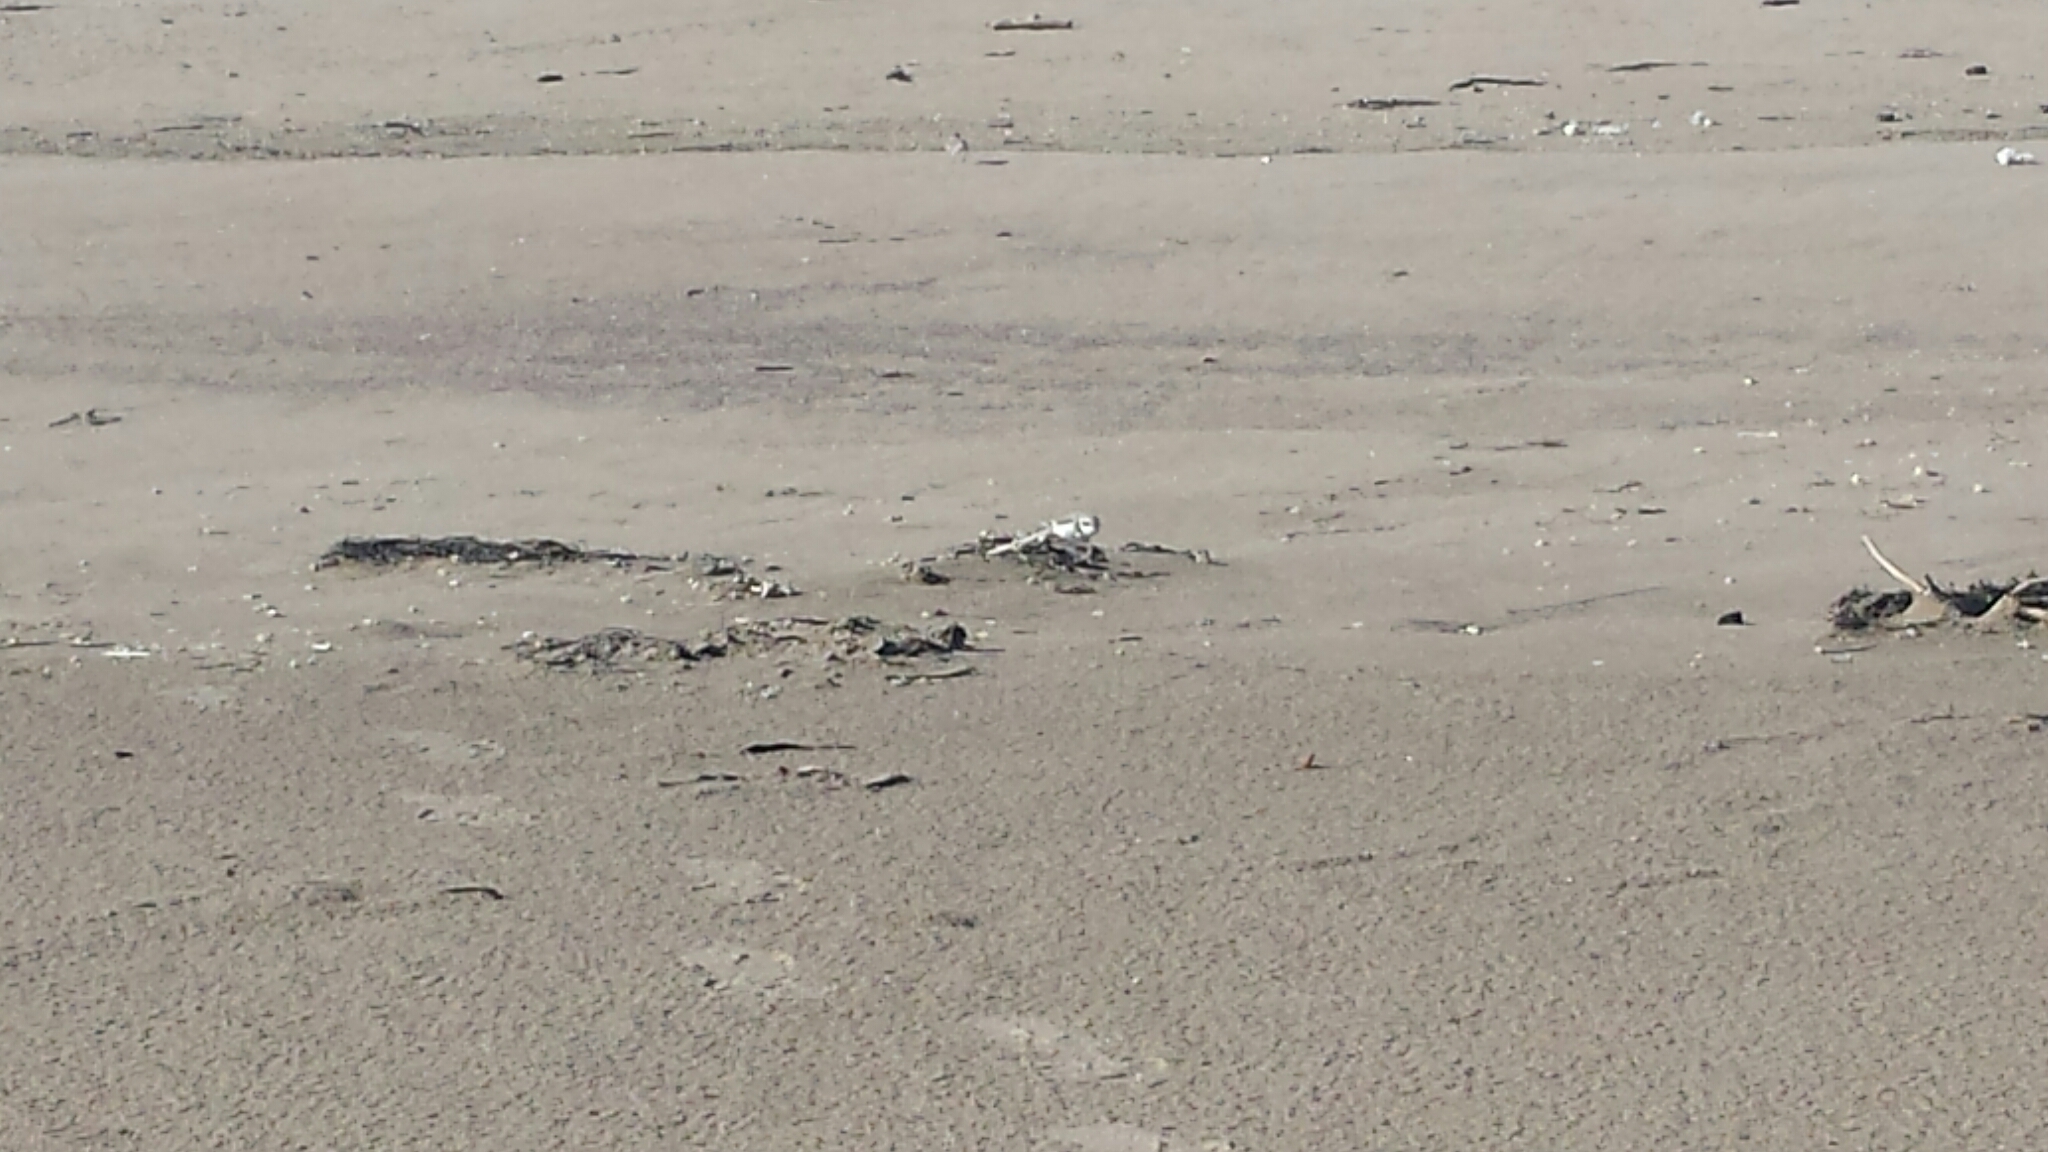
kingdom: Animalia
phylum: Chordata
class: Aves
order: Charadriiformes
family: Charadriidae
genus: Anarhynchus
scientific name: Anarhynchus
